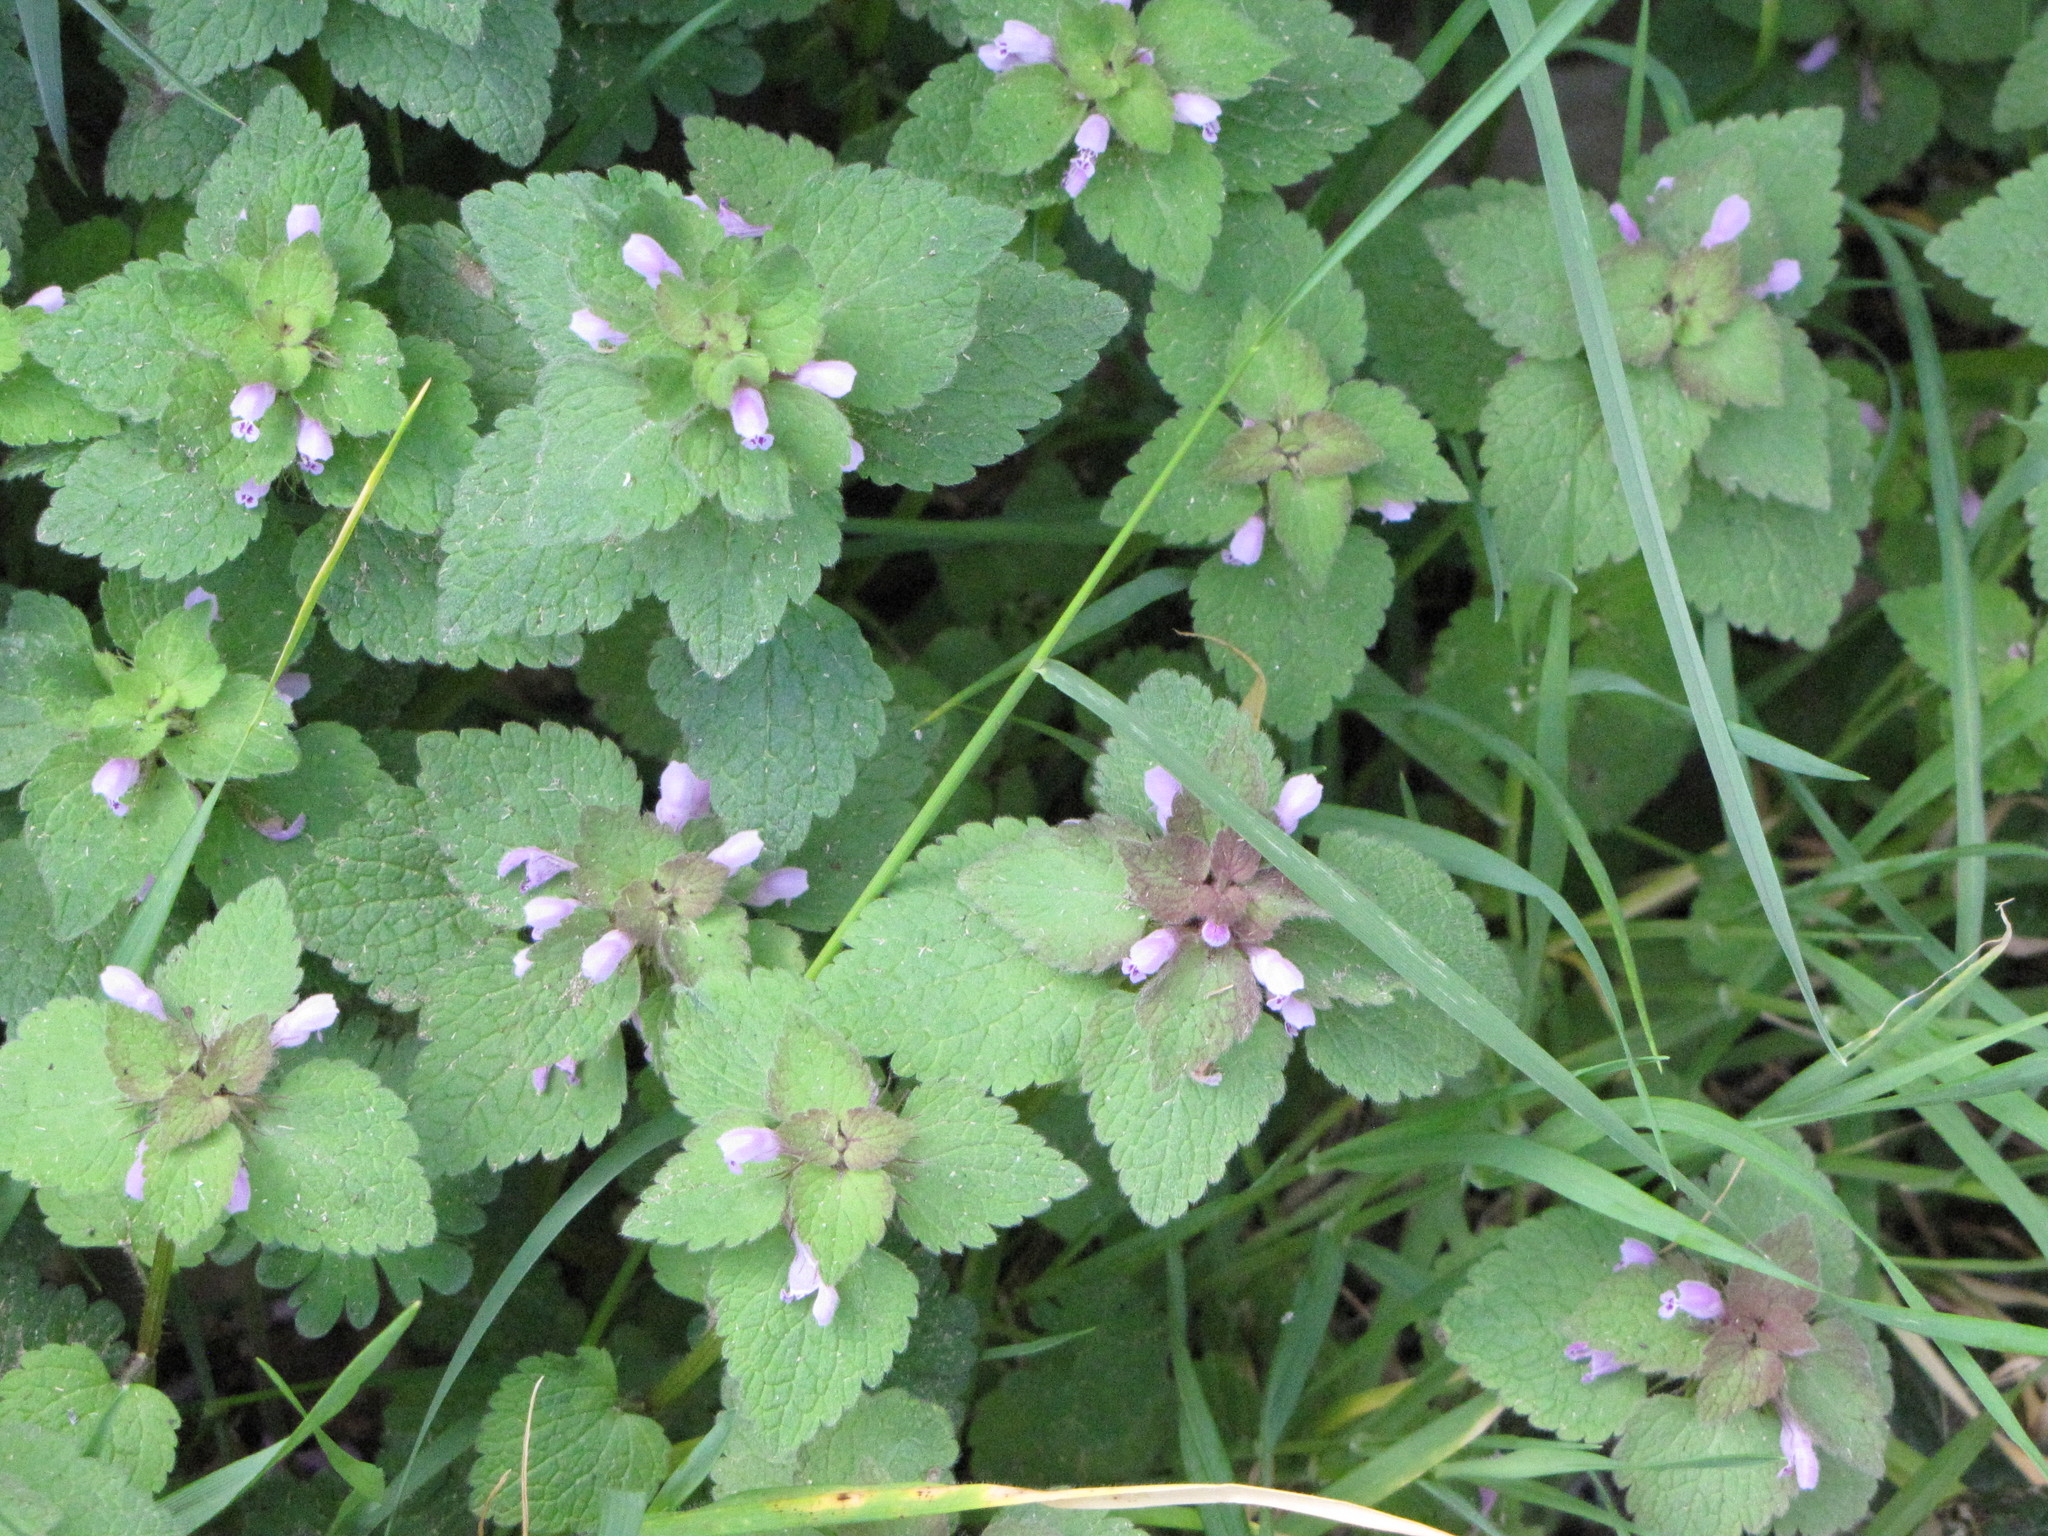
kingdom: Plantae
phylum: Tracheophyta
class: Magnoliopsida
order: Lamiales
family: Lamiaceae
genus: Lamium
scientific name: Lamium purpureum
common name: Red dead-nettle
